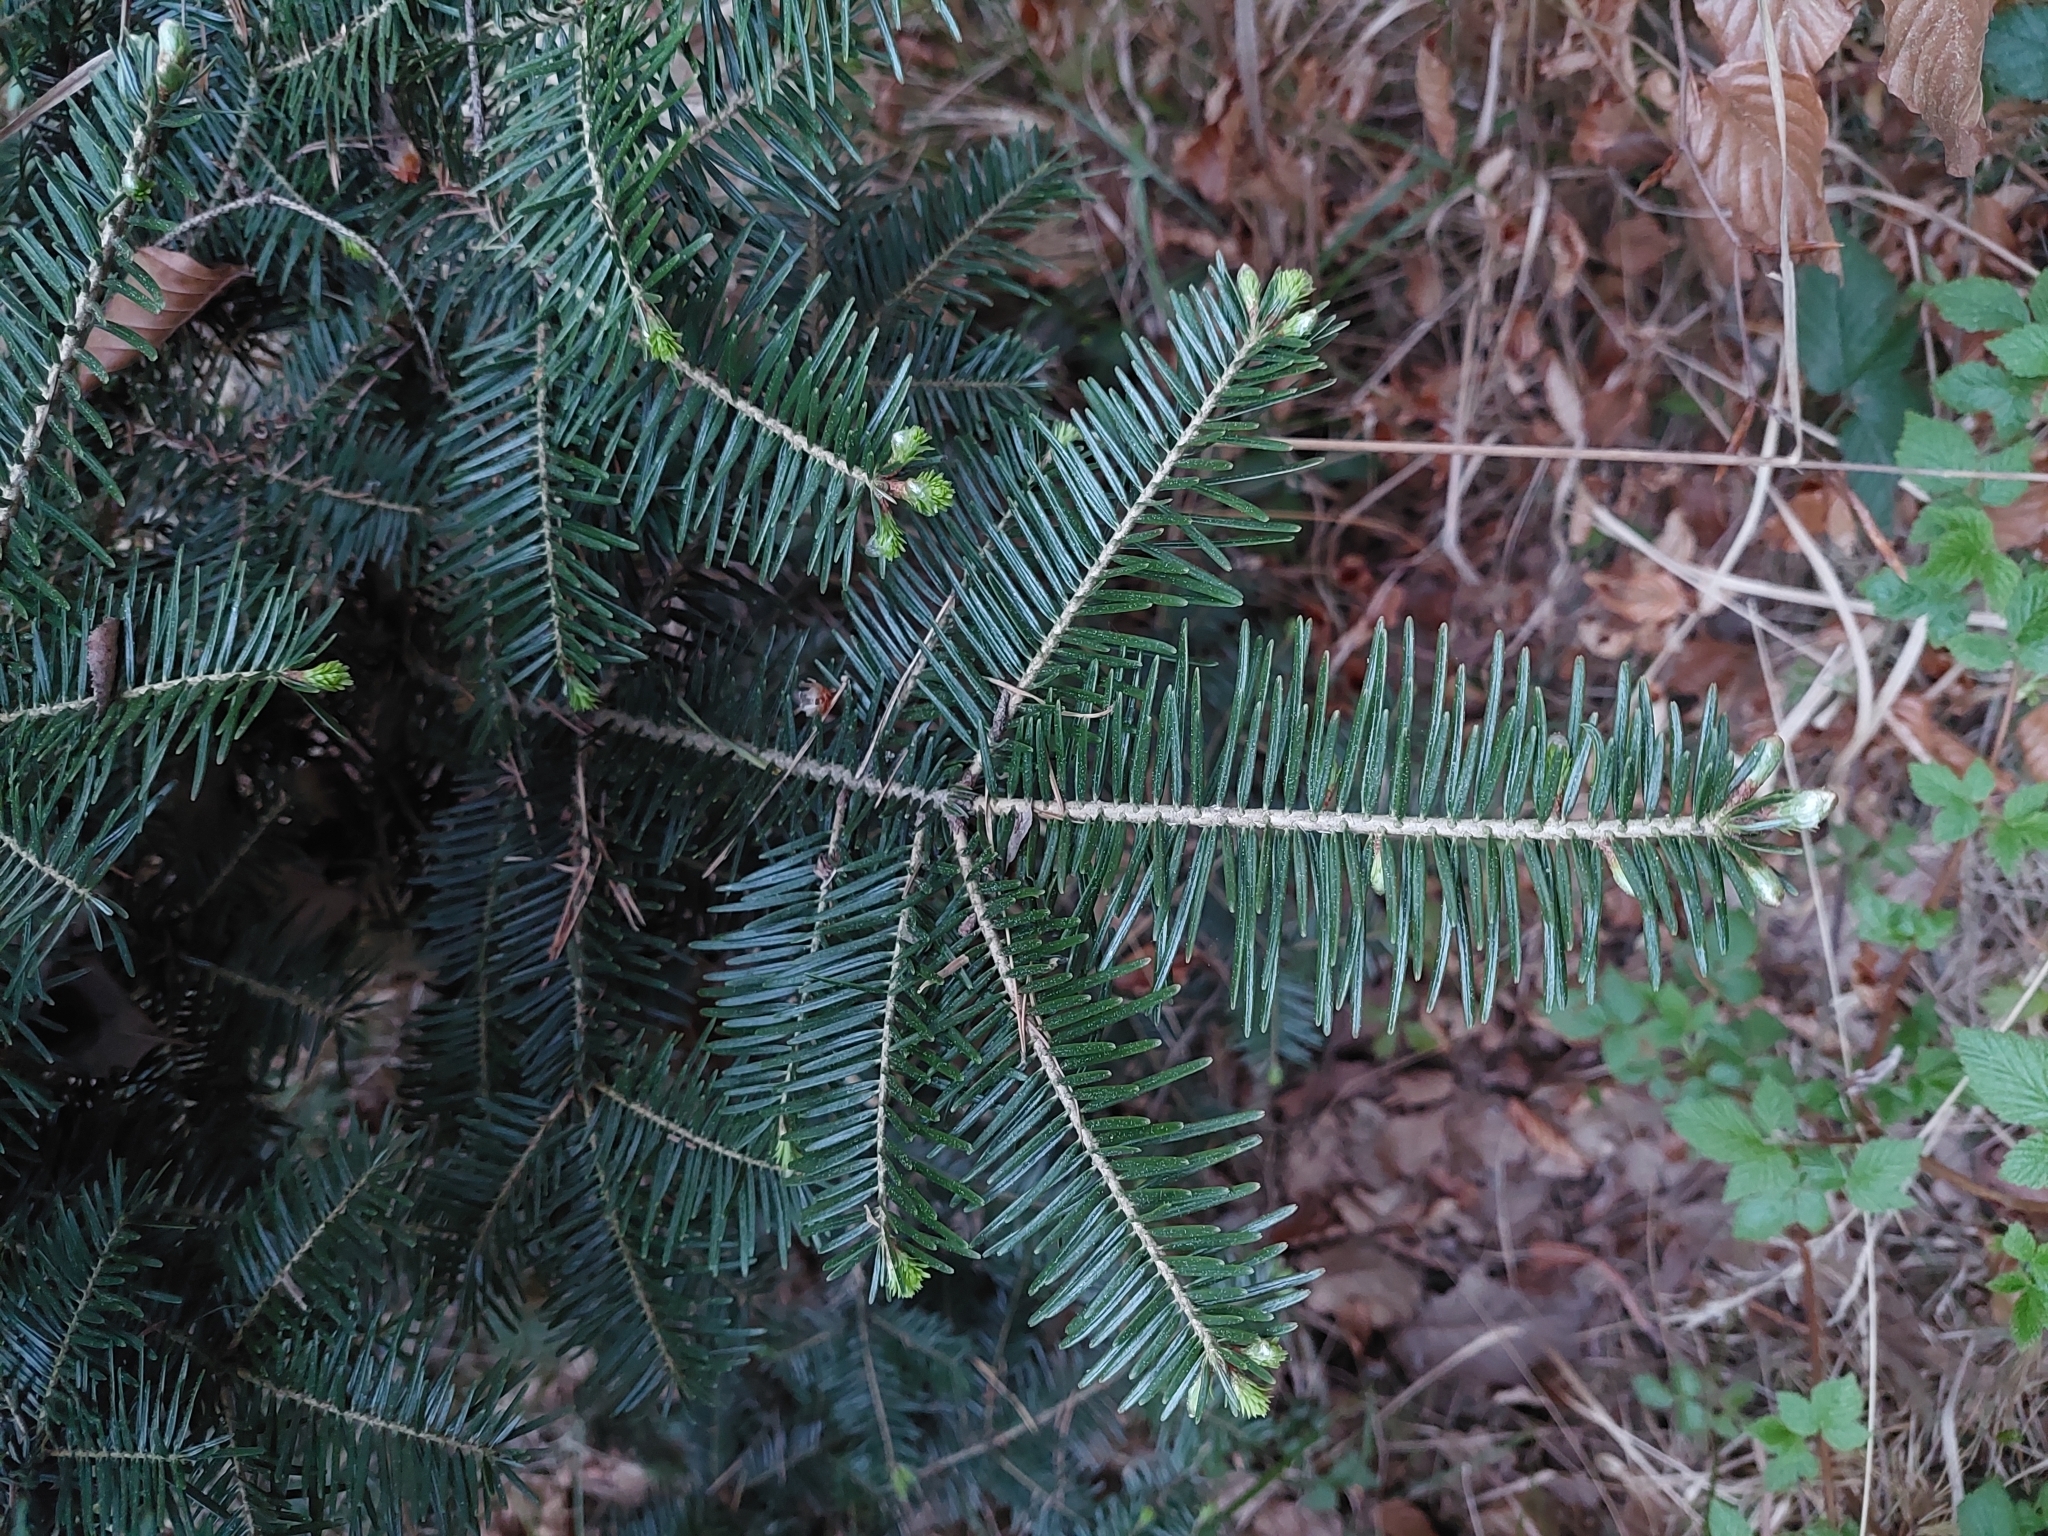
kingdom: Plantae
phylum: Tracheophyta
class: Pinopsida
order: Pinales
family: Pinaceae
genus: Abies
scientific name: Abies alba
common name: Silver fir
